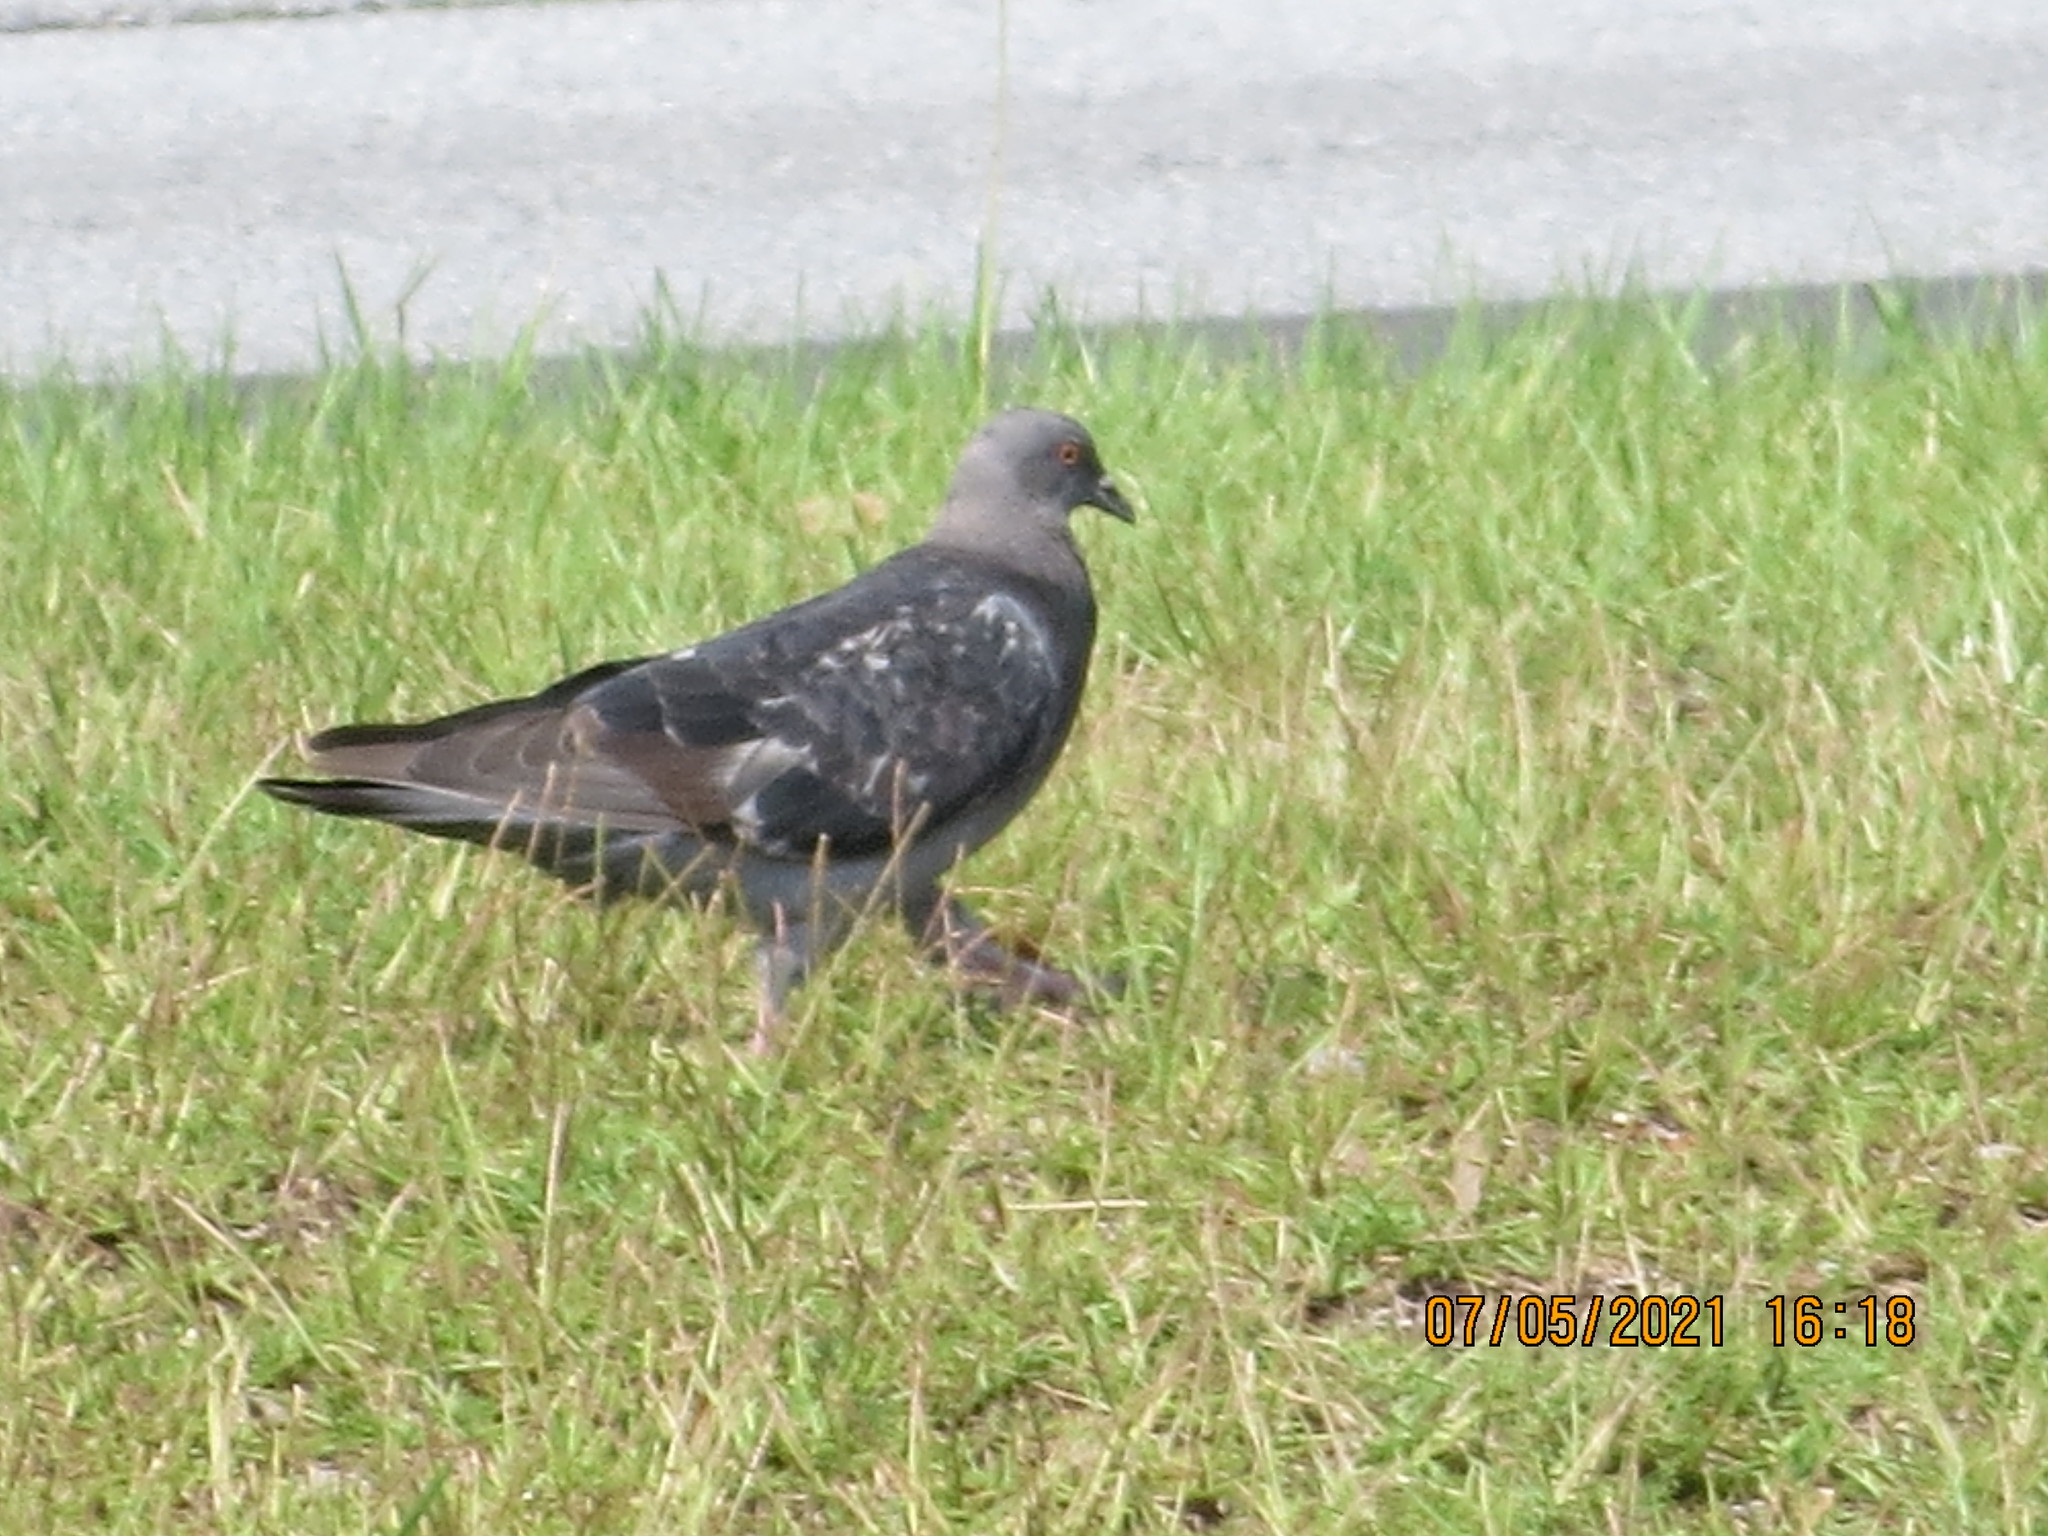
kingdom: Animalia
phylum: Chordata
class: Aves
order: Columbiformes
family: Columbidae
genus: Columba
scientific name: Columba livia
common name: Rock pigeon
